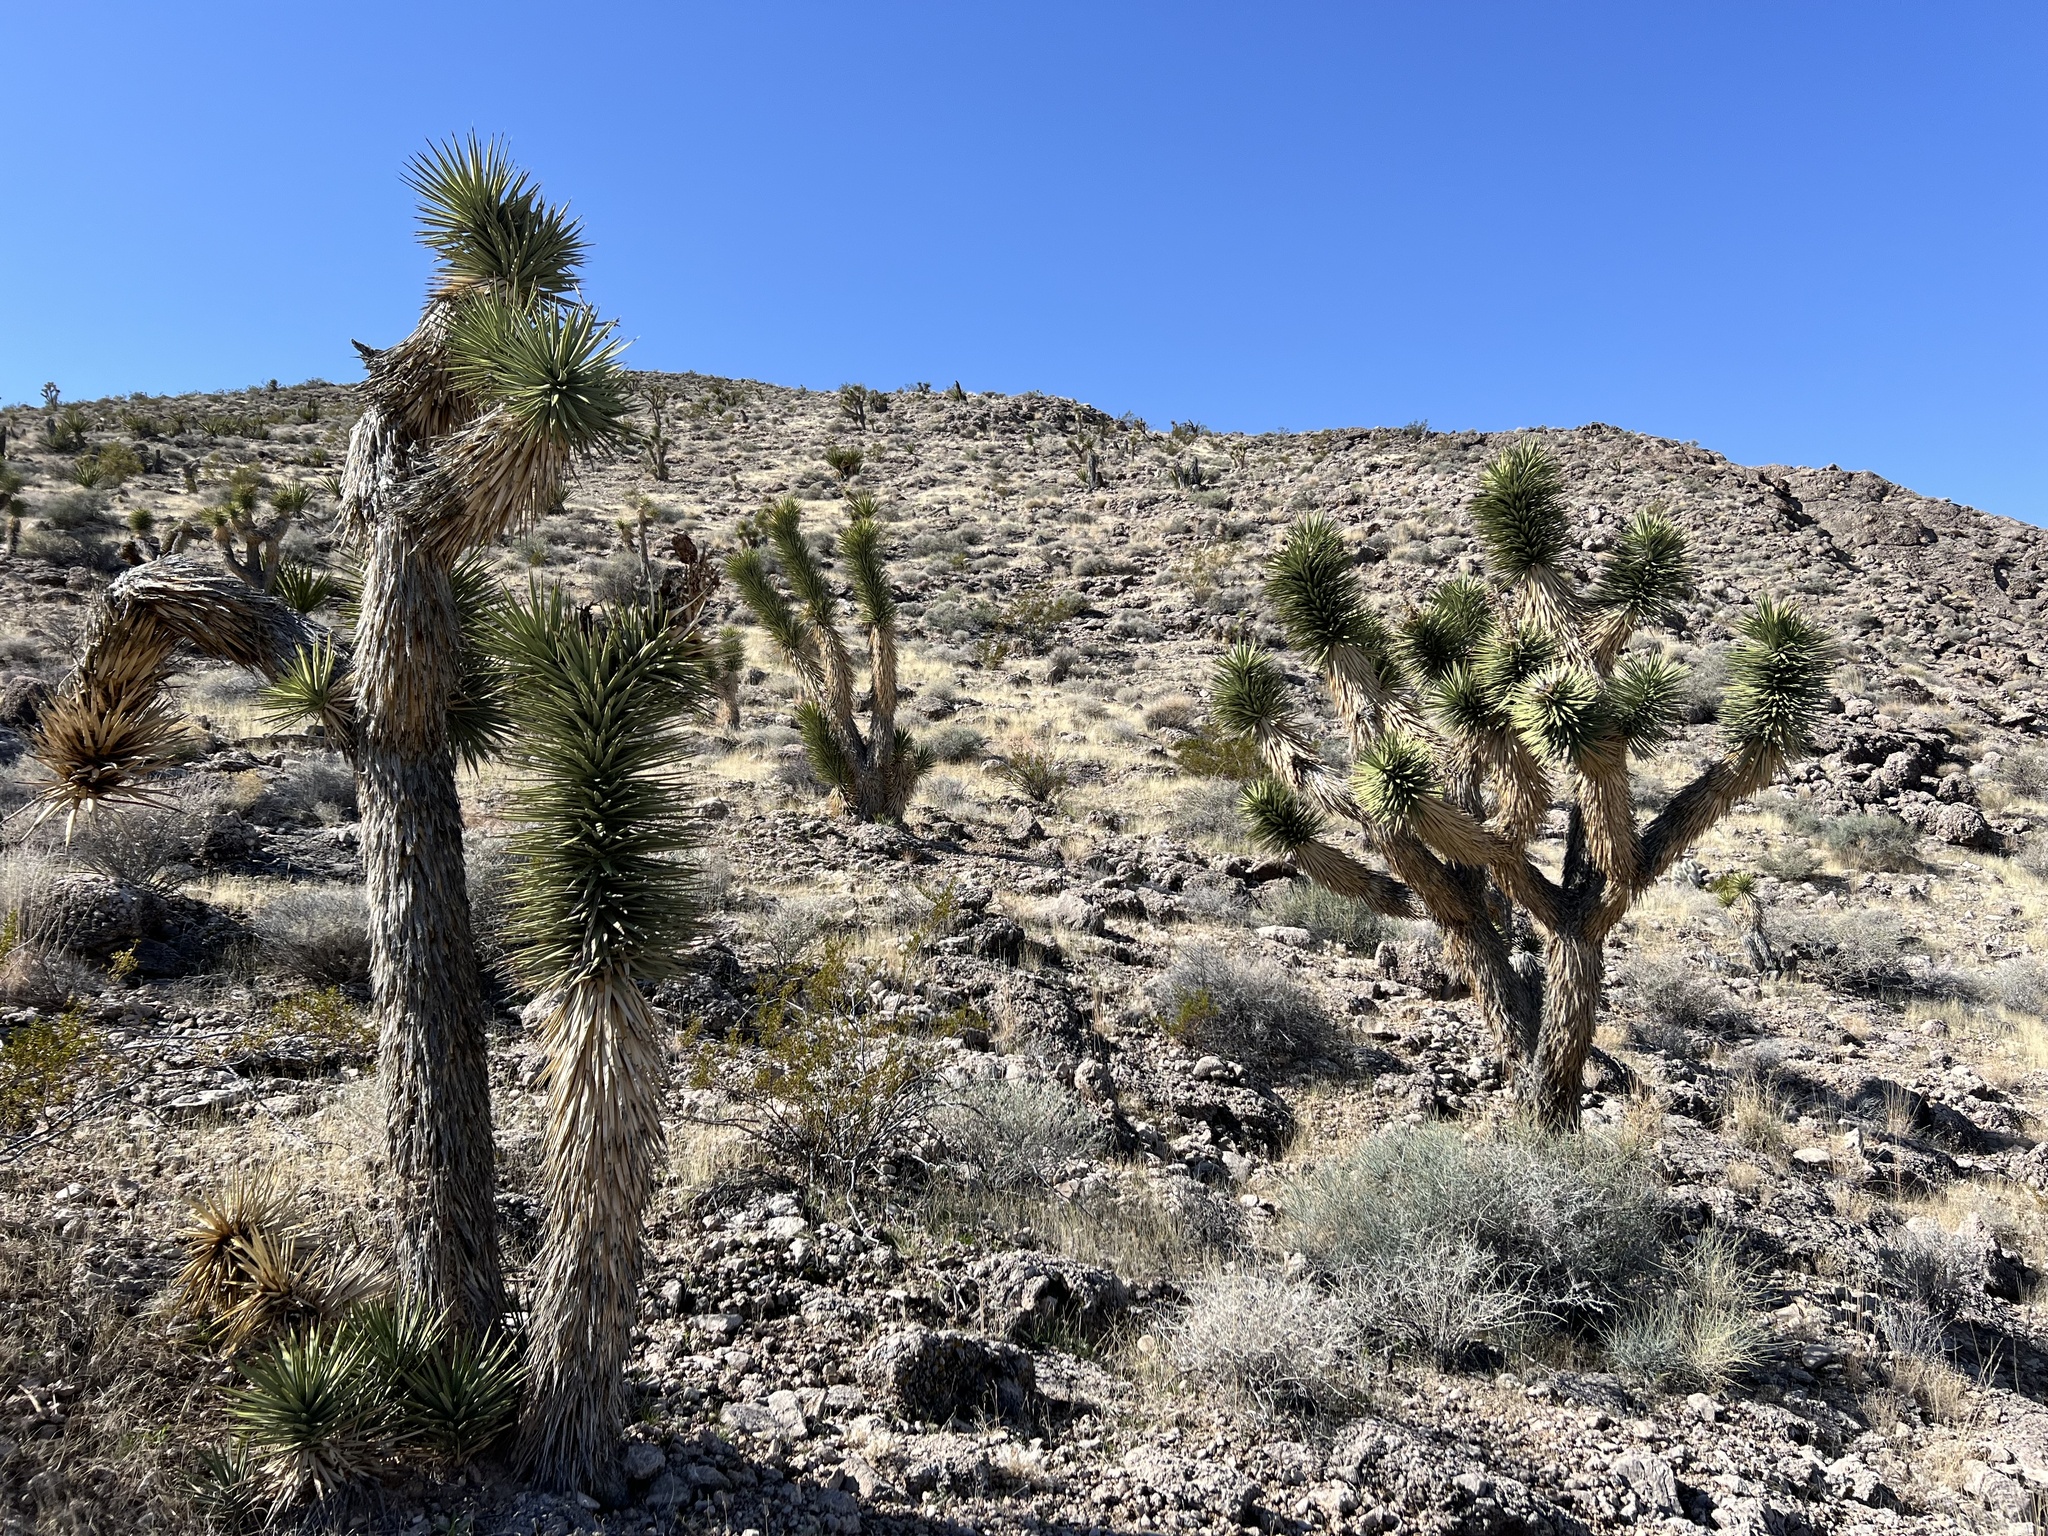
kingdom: Plantae
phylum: Tracheophyta
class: Liliopsida
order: Asparagales
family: Asparagaceae
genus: Yucca
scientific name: Yucca brevifolia
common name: Joshua tree
